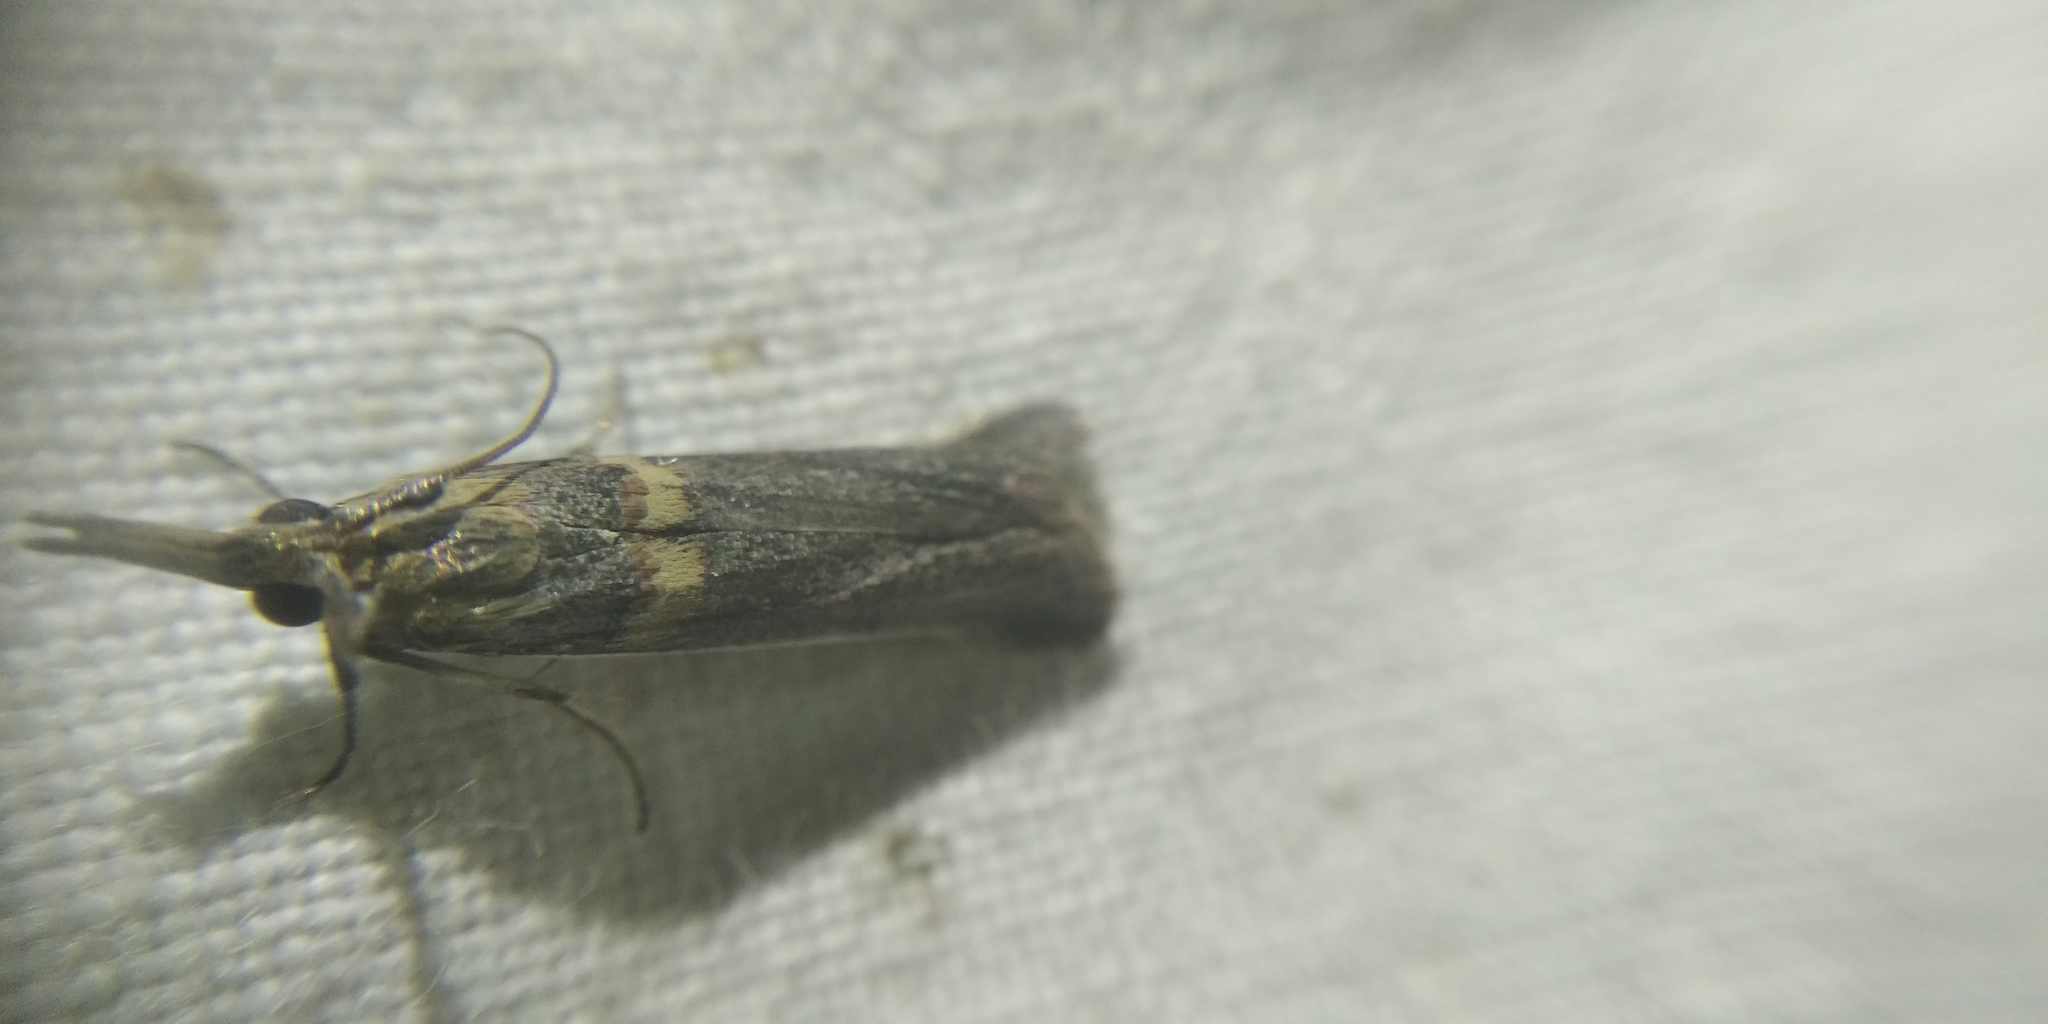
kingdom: Animalia
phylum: Arthropoda
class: Insecta
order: Lepidoptera
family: Pyralidae
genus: Etiella
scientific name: Etiella zinckenella
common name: Gold-banded etiella moth
